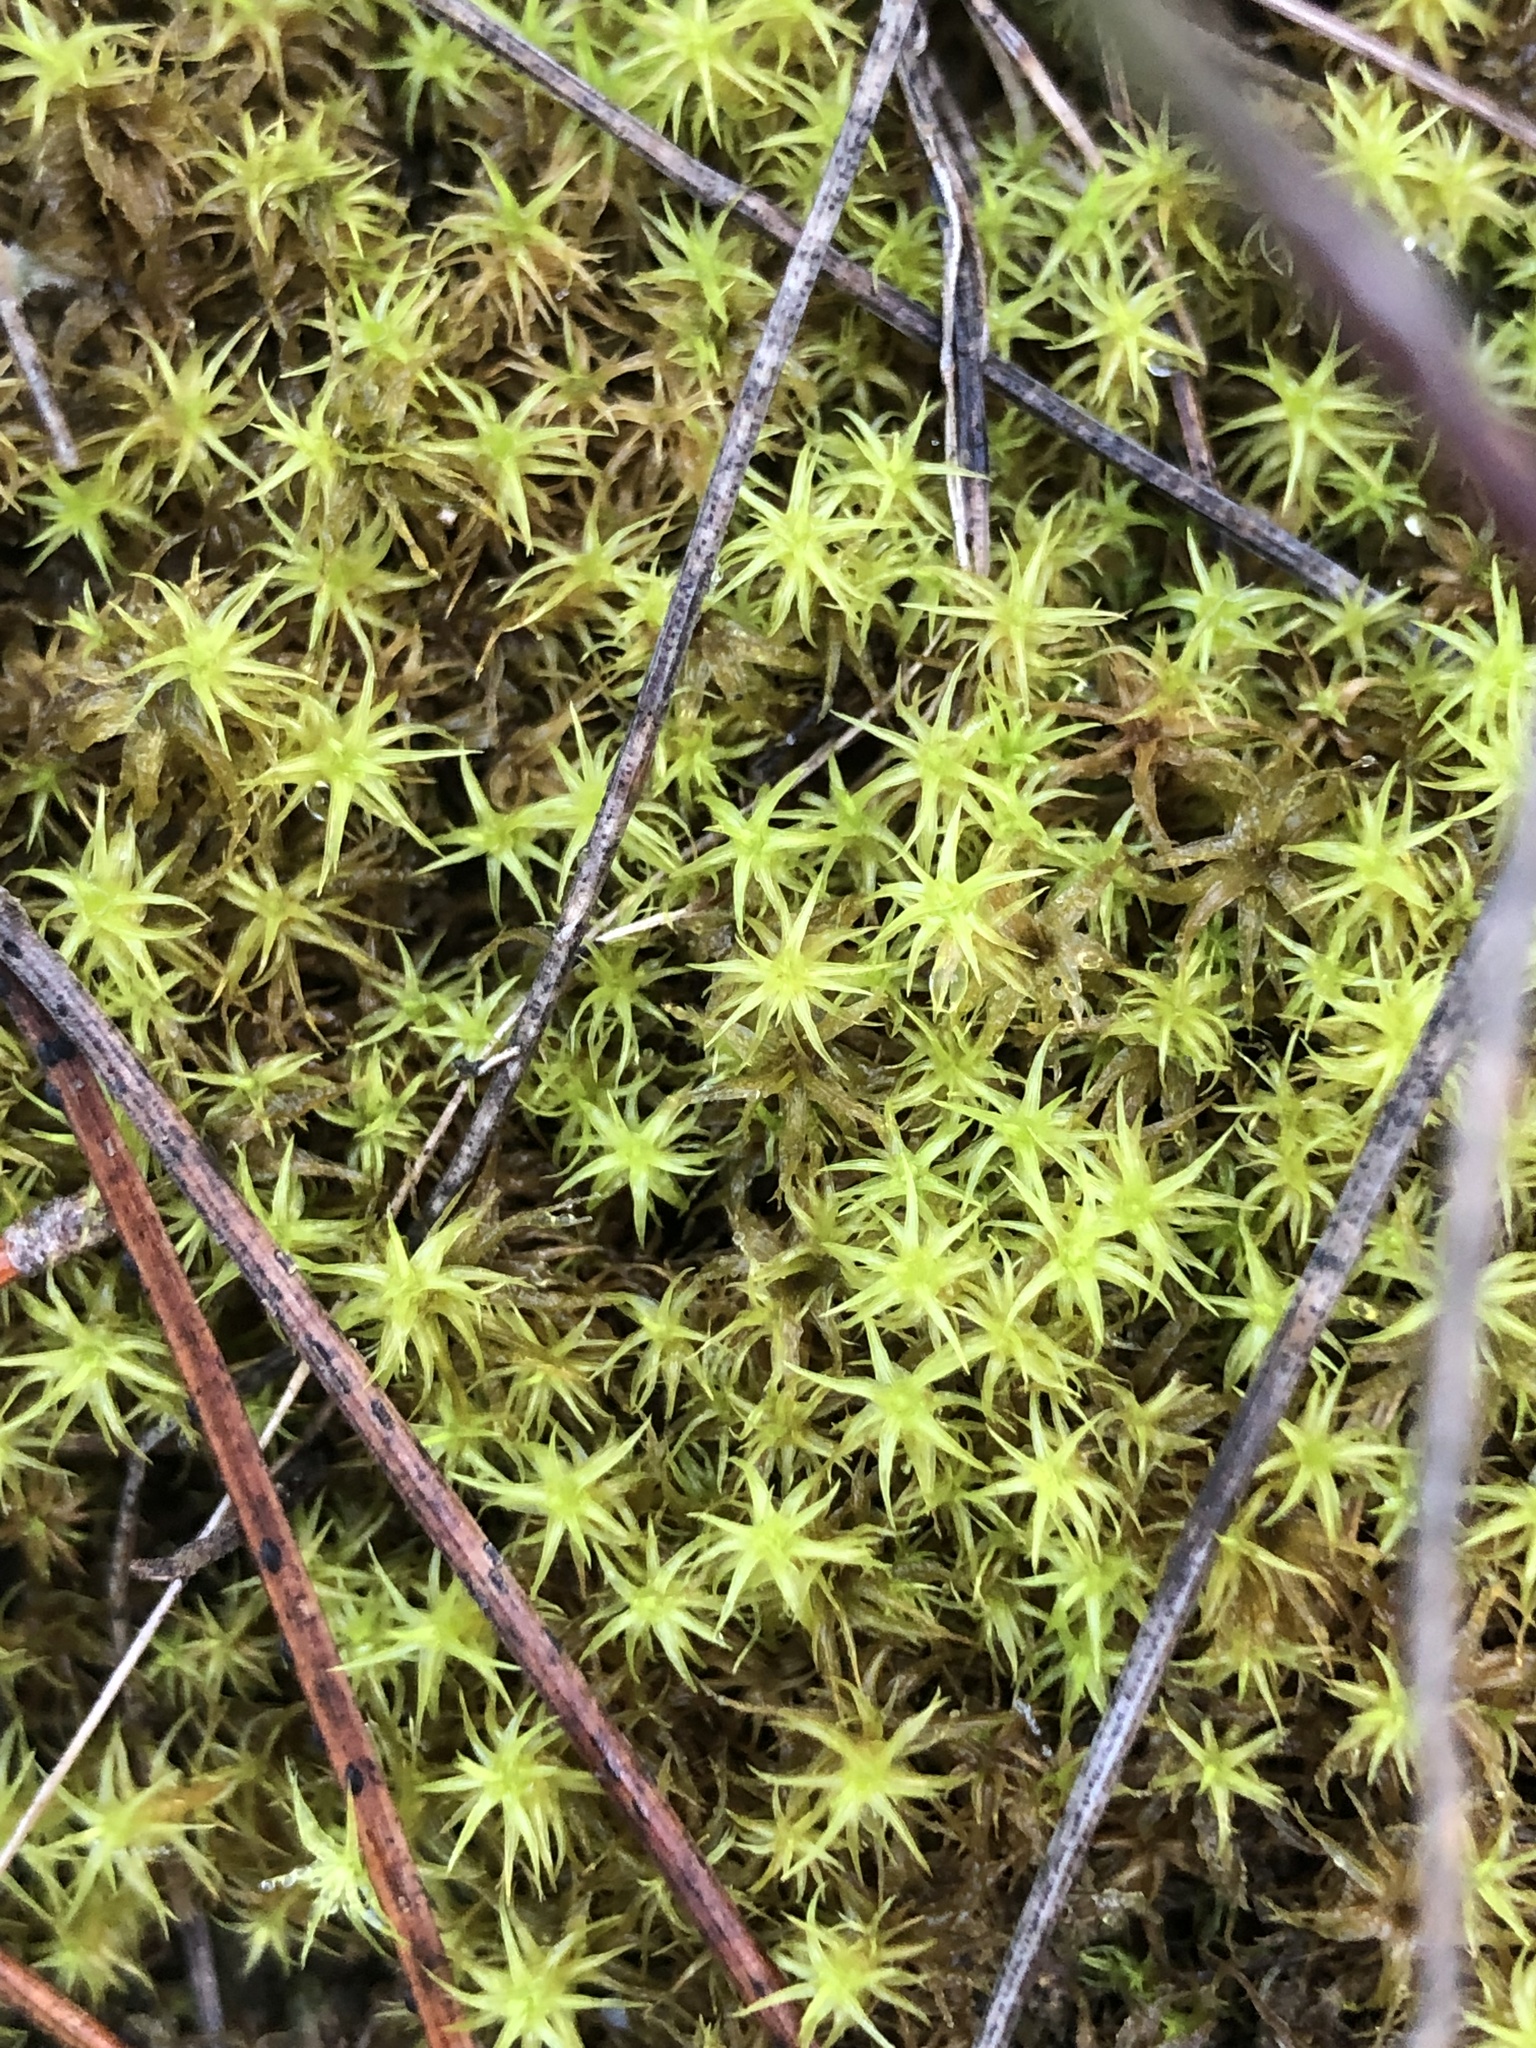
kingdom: Plantae
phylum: Bryophyta
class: Bryopsida
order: Pottiales
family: Pottiaceae
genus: Pleurochaete
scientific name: Pleurochaete squarrosa
